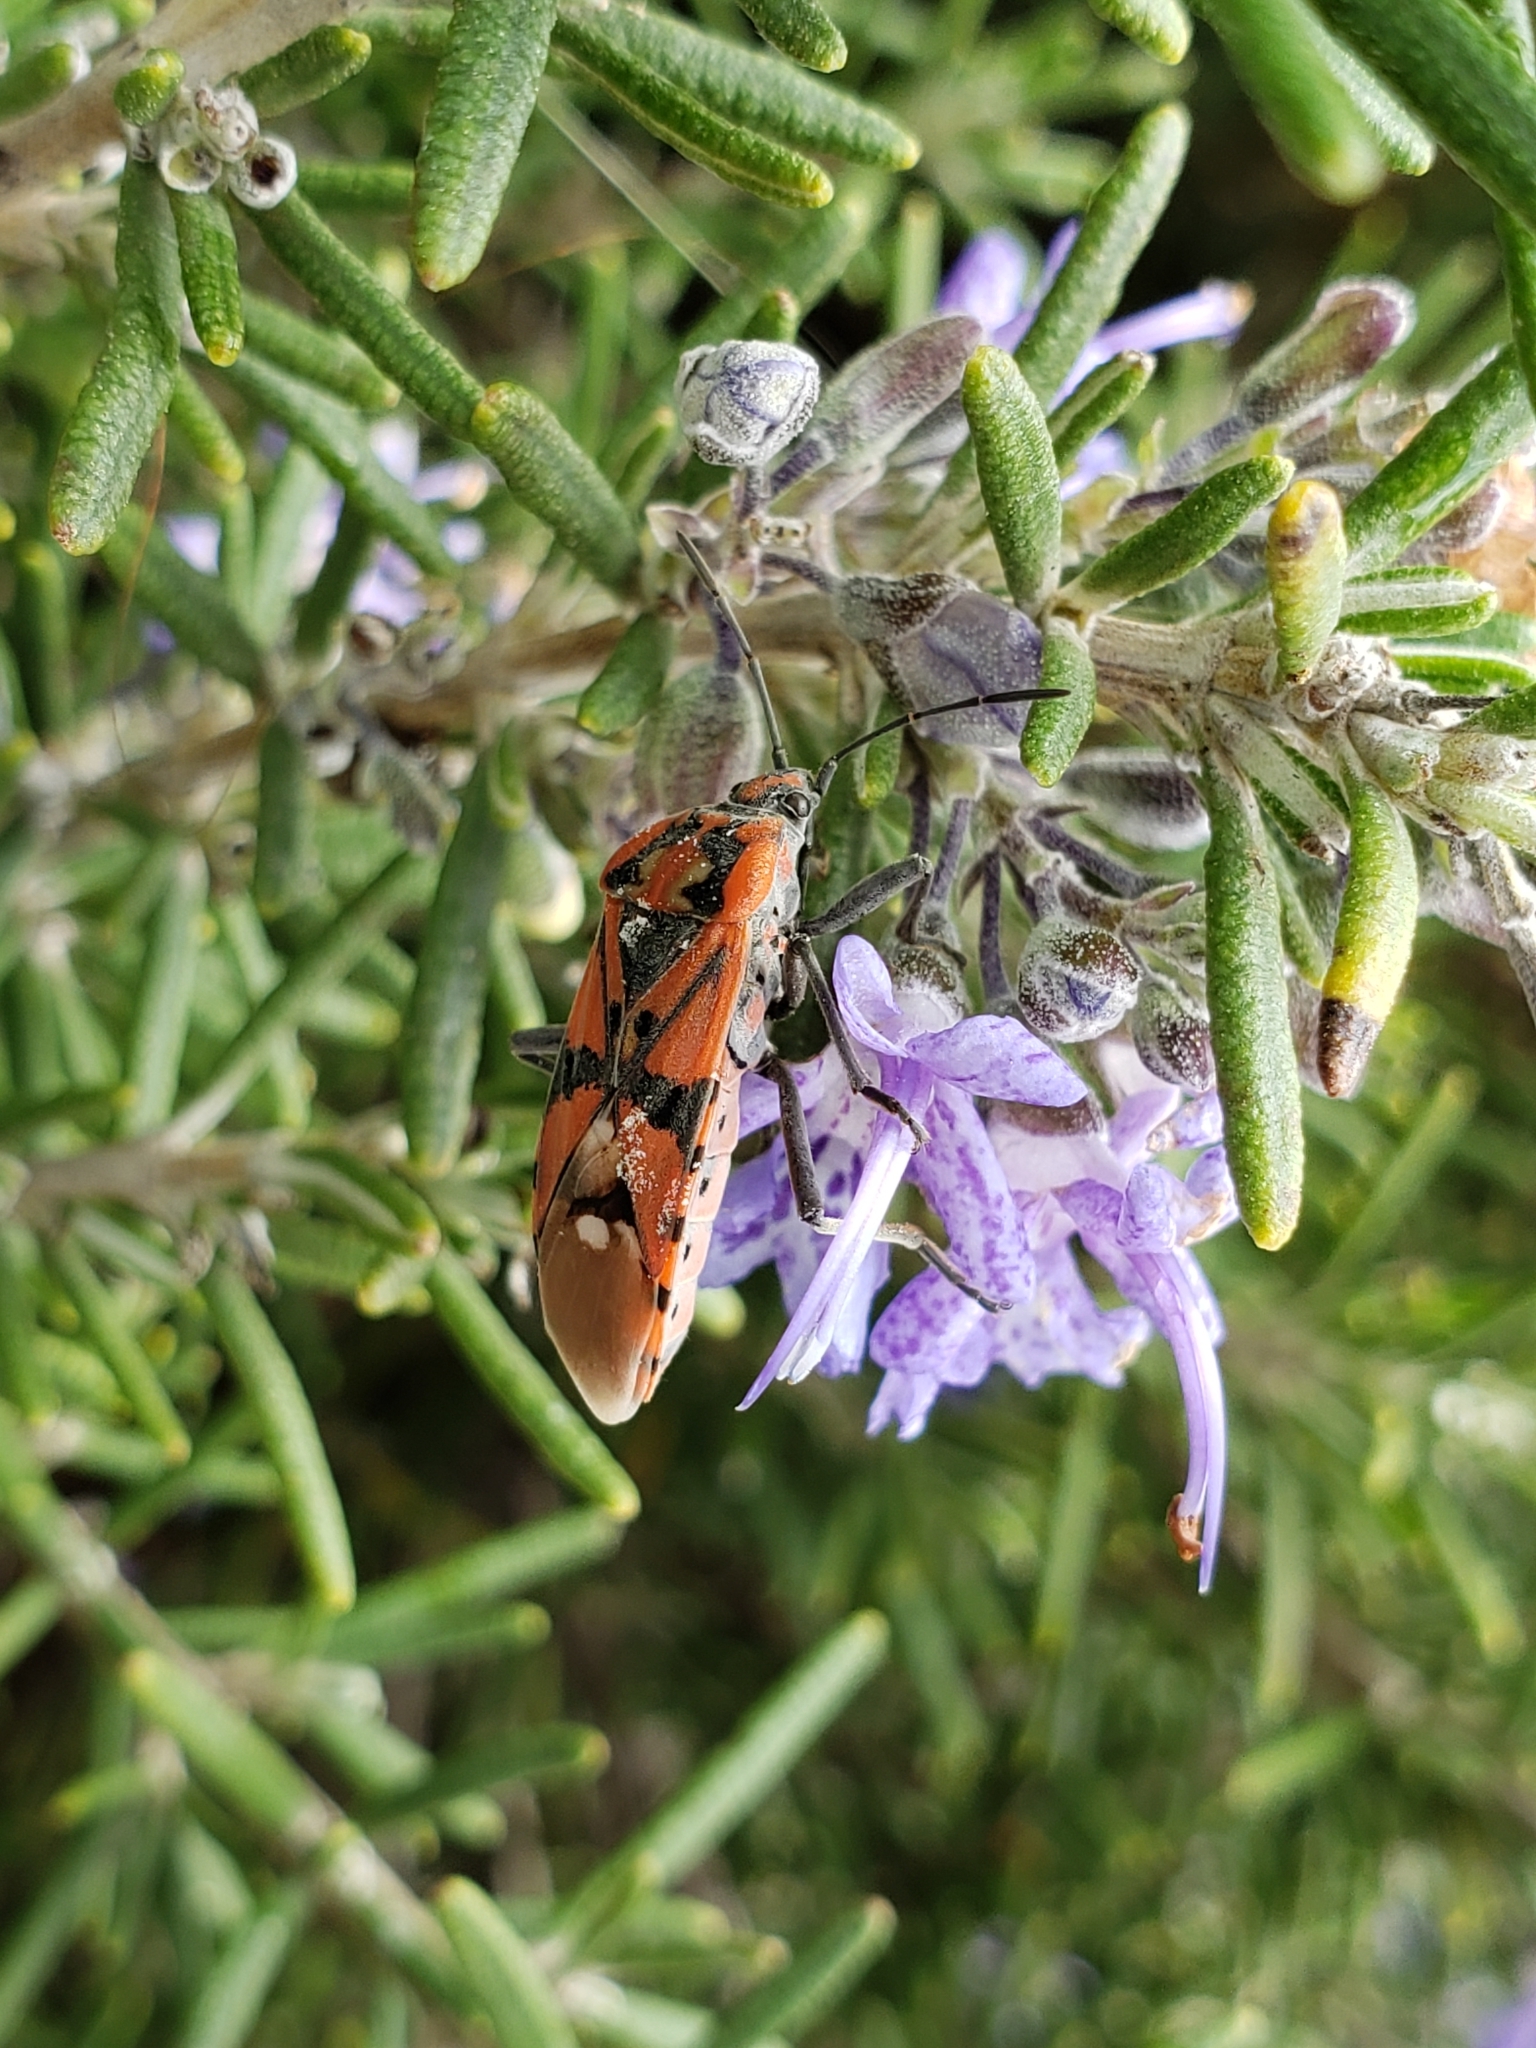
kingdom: Animalia
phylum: Arthropoda
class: Insecta
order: Hemiptera
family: Lygaeidae
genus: Spilostethus
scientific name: Spilostethus pandurus
